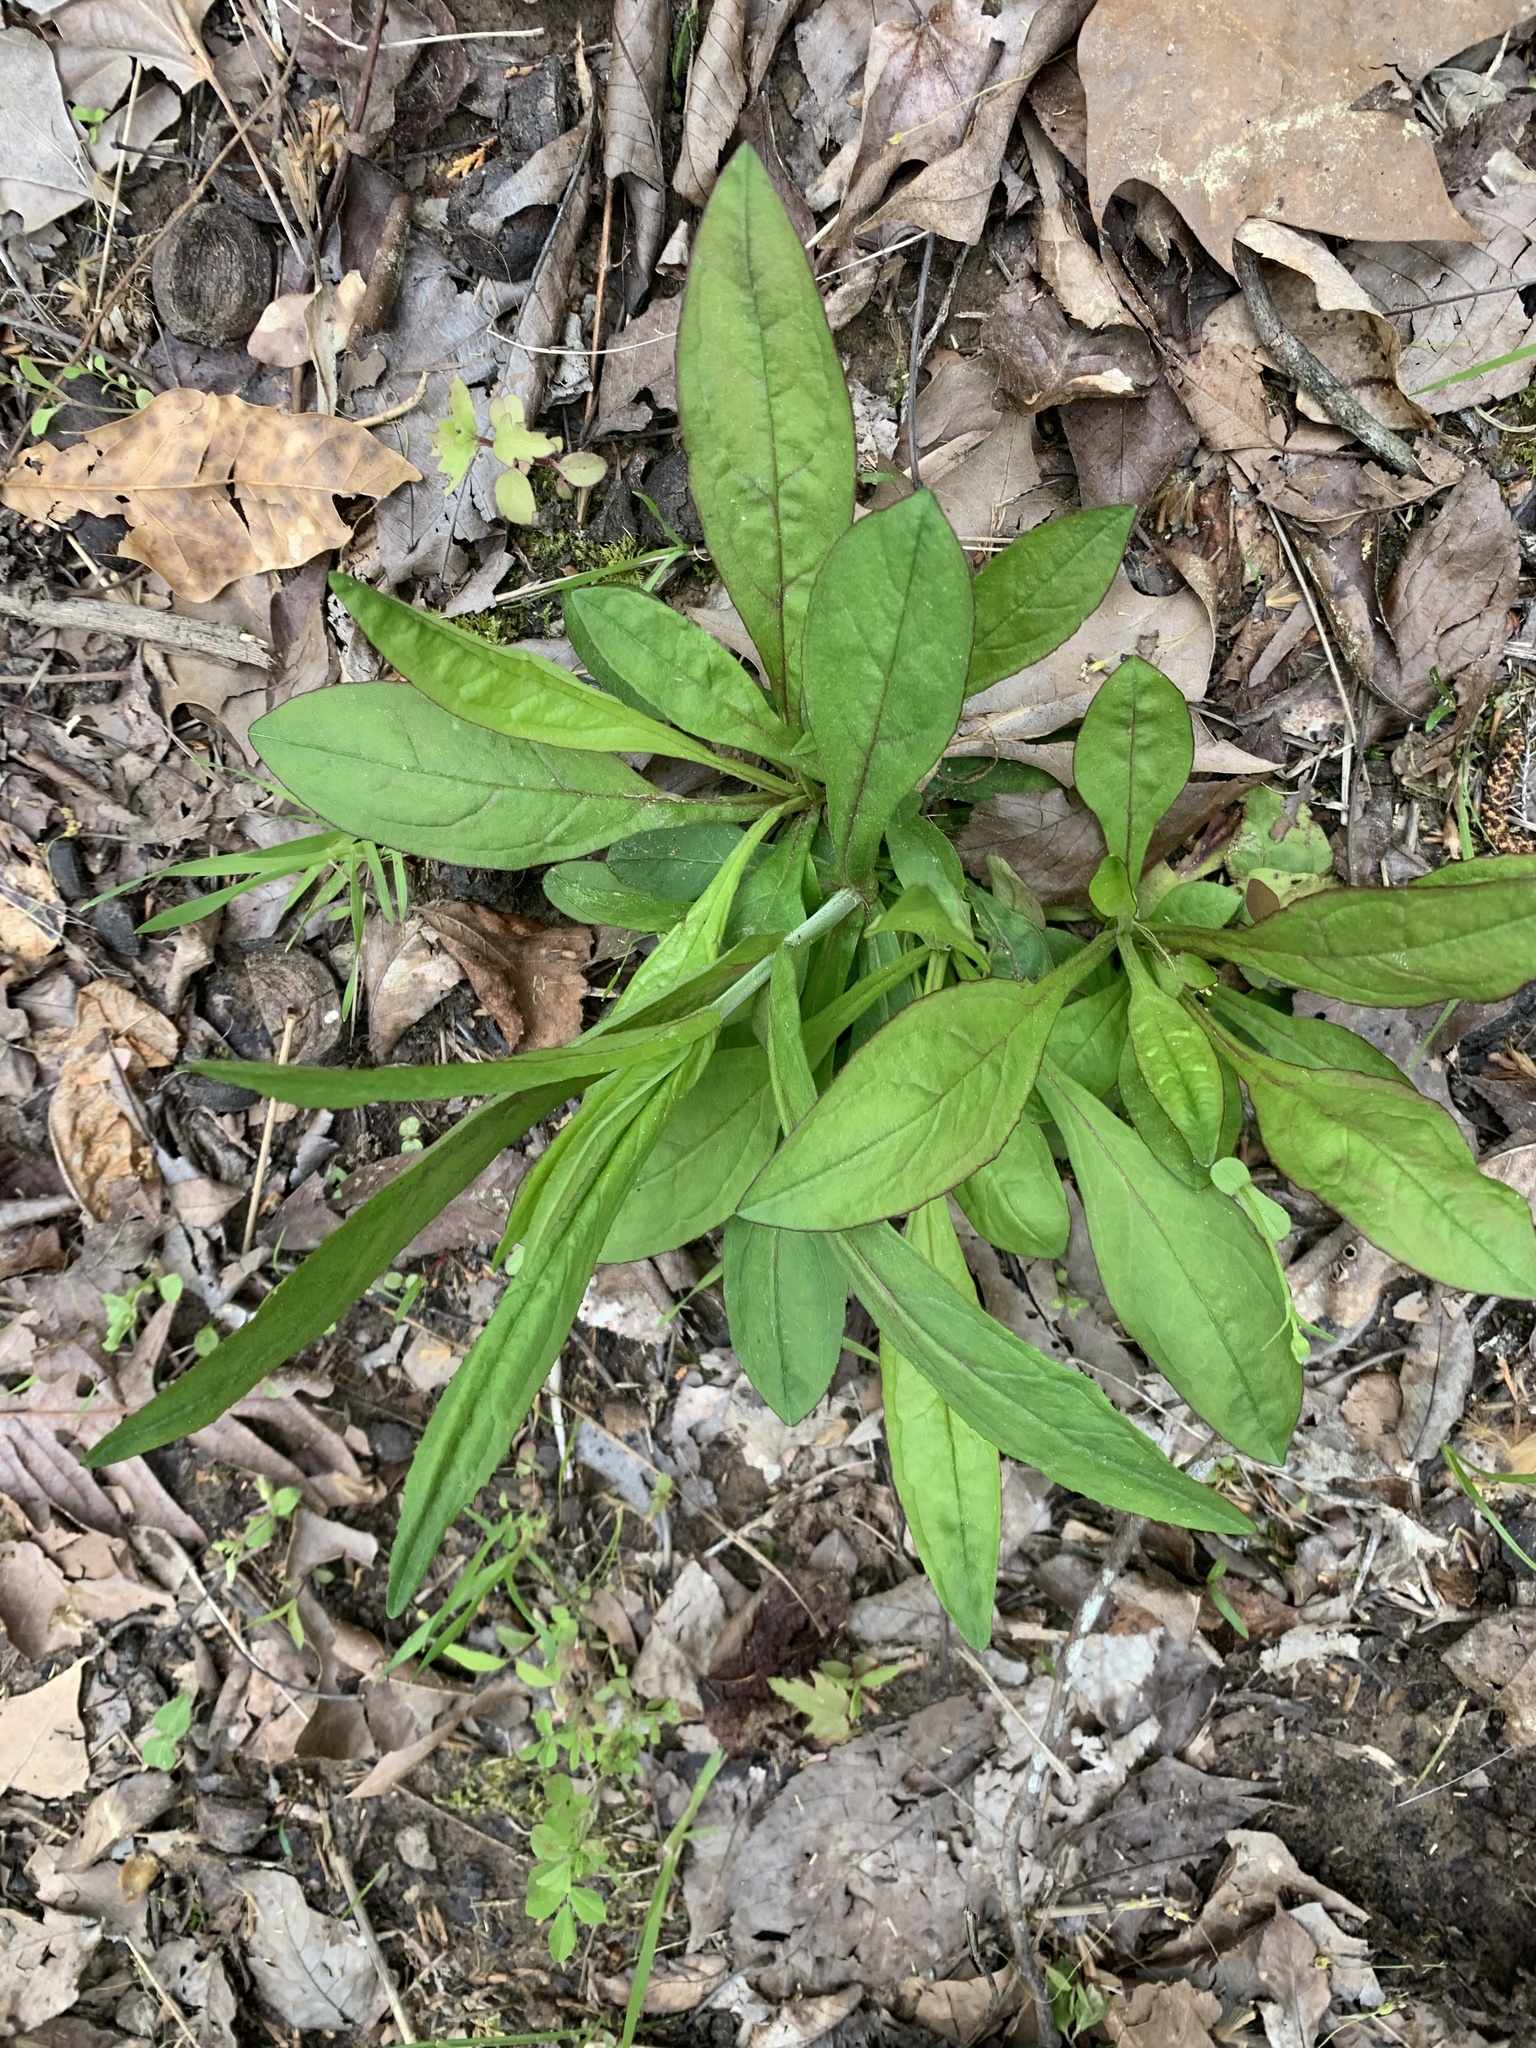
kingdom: Plantae
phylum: Tracheophyta
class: Magnoliopsida
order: Lamiales
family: Plantaginaceae
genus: Penstemon
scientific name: Penstemon laevigatus
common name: Eastern beardtongue
